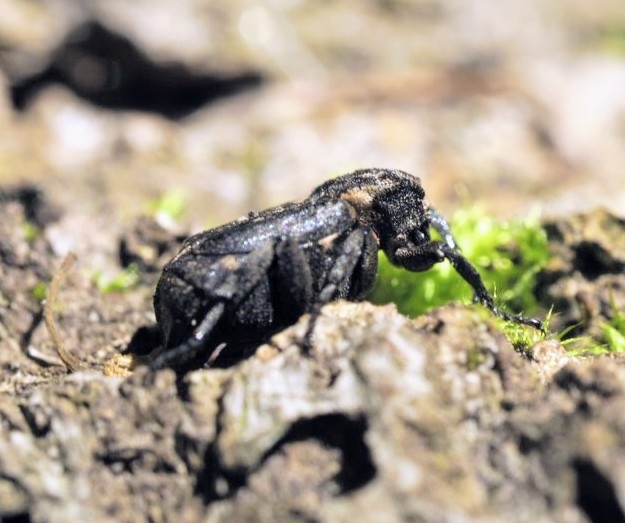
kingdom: Animalia
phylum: Arthropoda
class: Insecta
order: Coleoptera
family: Scarabaeidae
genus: Valgus
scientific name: Valgus hemipterus
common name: Bug flower chafer
